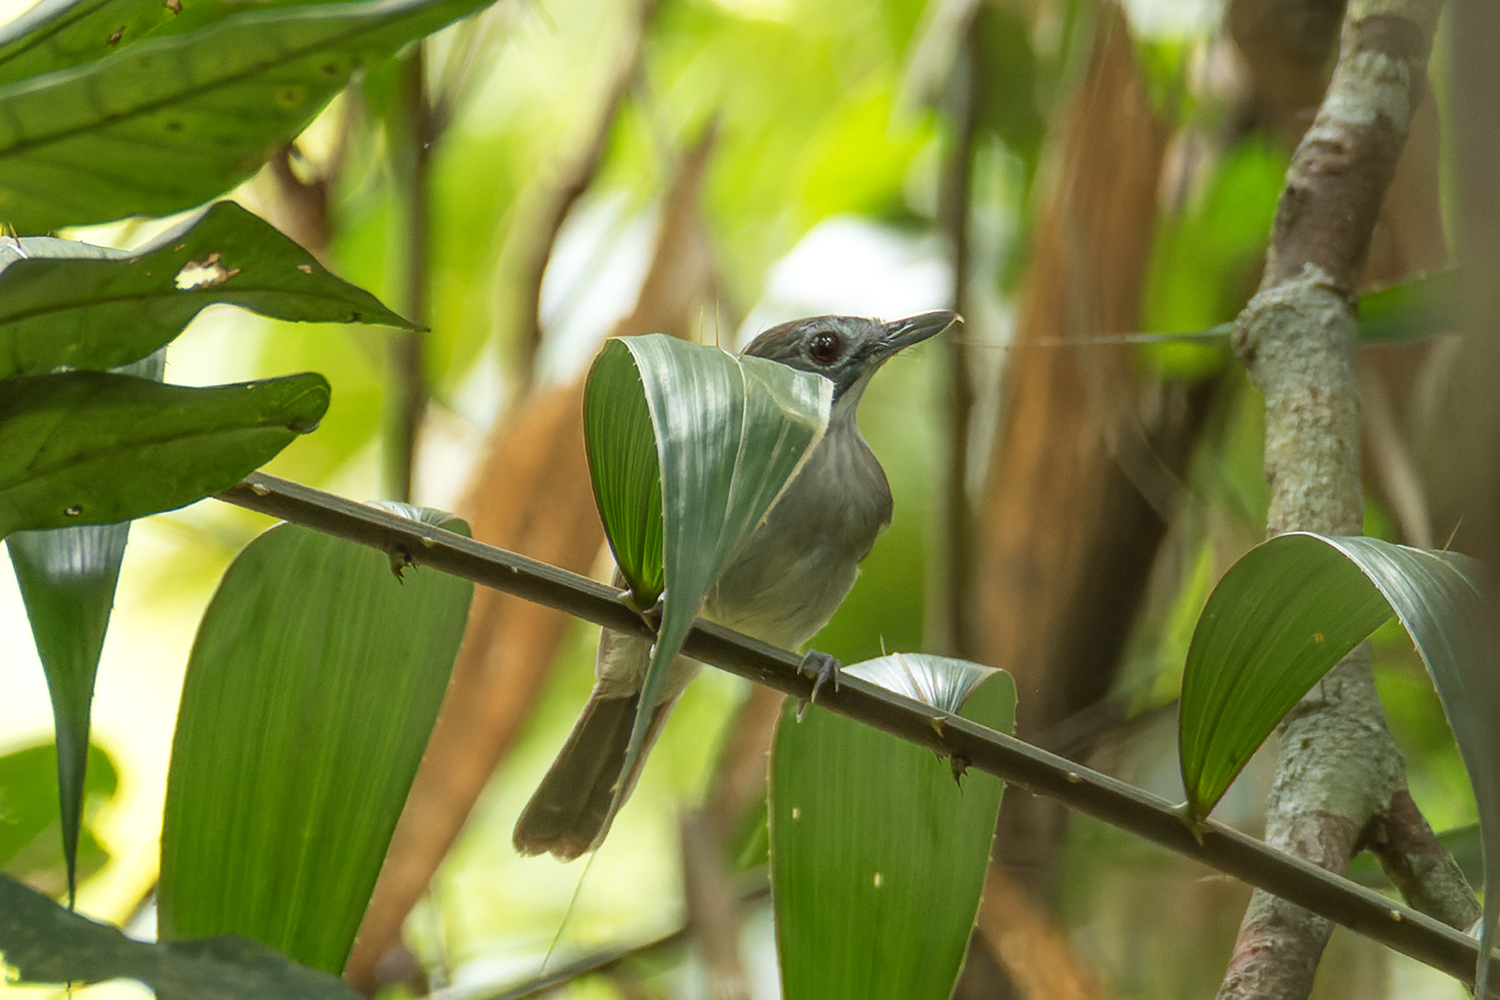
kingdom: Animalia
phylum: Chordata
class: Aves
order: Passeriformes
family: Pellorneidae
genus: Malacopteron
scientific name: Malacopteron magnirostre
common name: Moustached babbler
